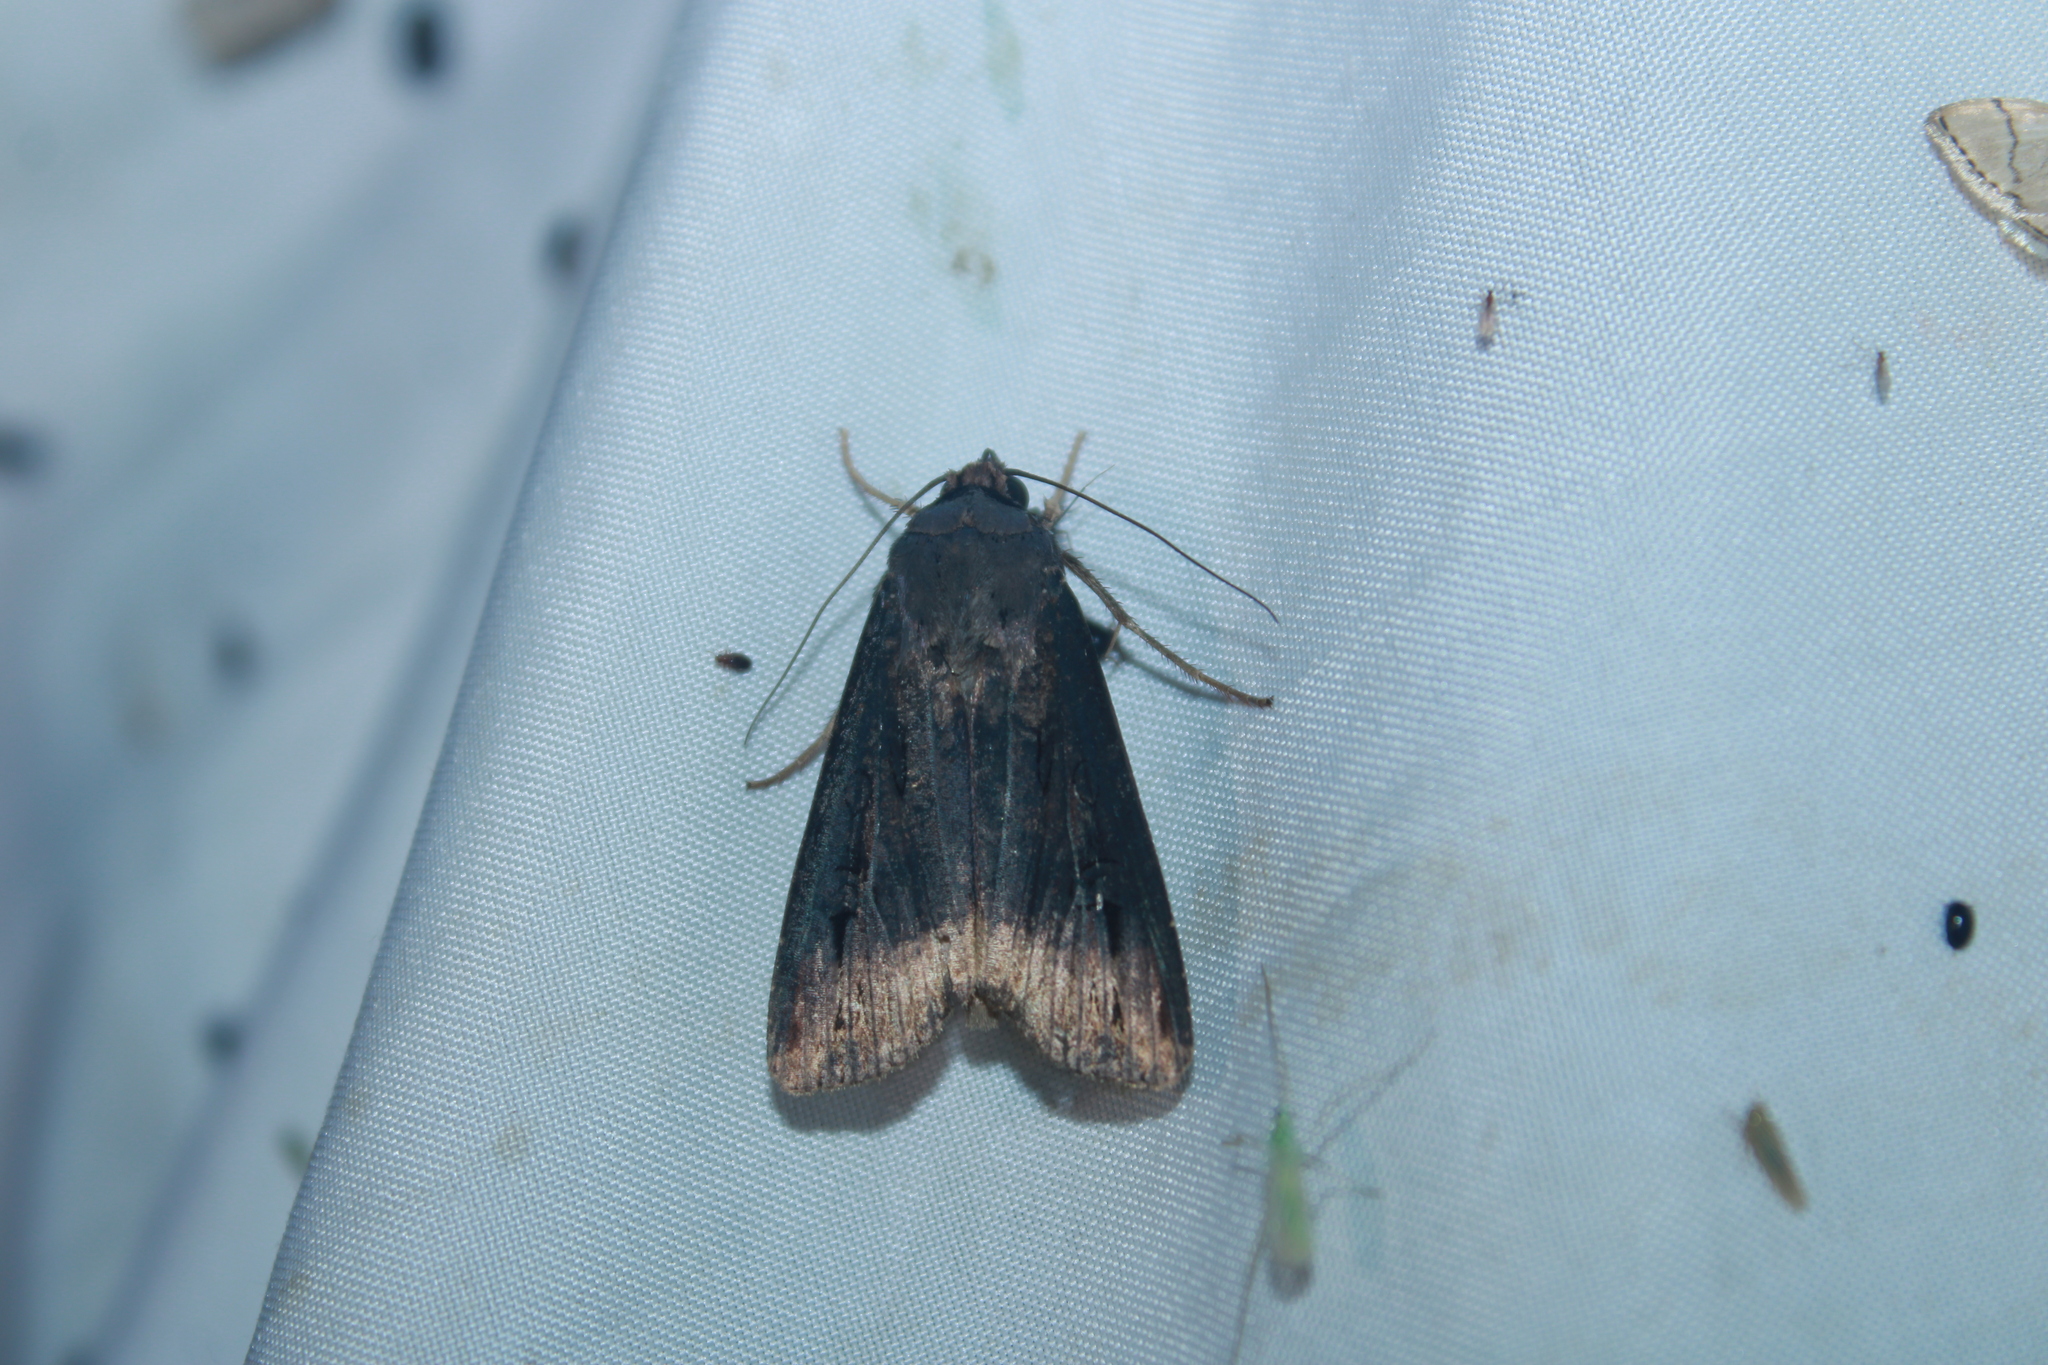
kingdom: Animalia
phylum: Arthropoda
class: Insecta
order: Lepidoptera
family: Noctuidae
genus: Agrotis
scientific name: Agrotis ipsilon
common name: Dark sword-grass
